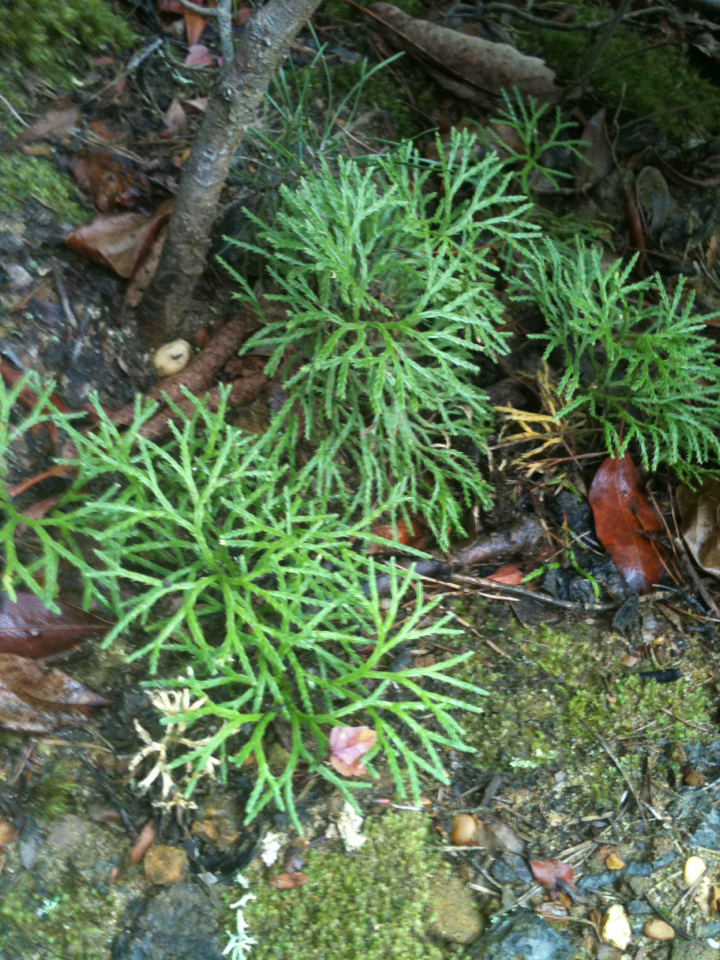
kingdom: Plantae
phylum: Tracheophyta
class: Lycopodiopsida
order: Lycopodiales
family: Lycopodiaceae
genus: Diphasiastrum
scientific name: Diphasiastrum digitatum
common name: Southern running-pine
